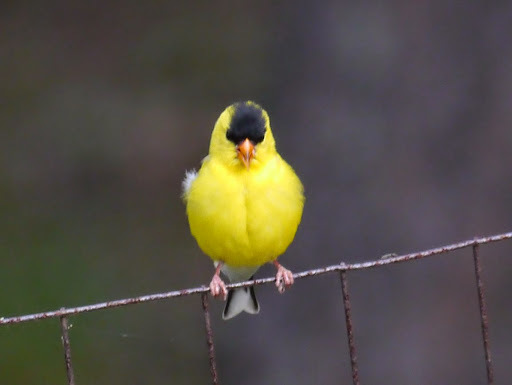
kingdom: Animalia
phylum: Chordata
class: Aves
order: Passeriformes
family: Fringillidae
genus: Spinus
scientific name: Spinus tristis
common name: American goldfinch
